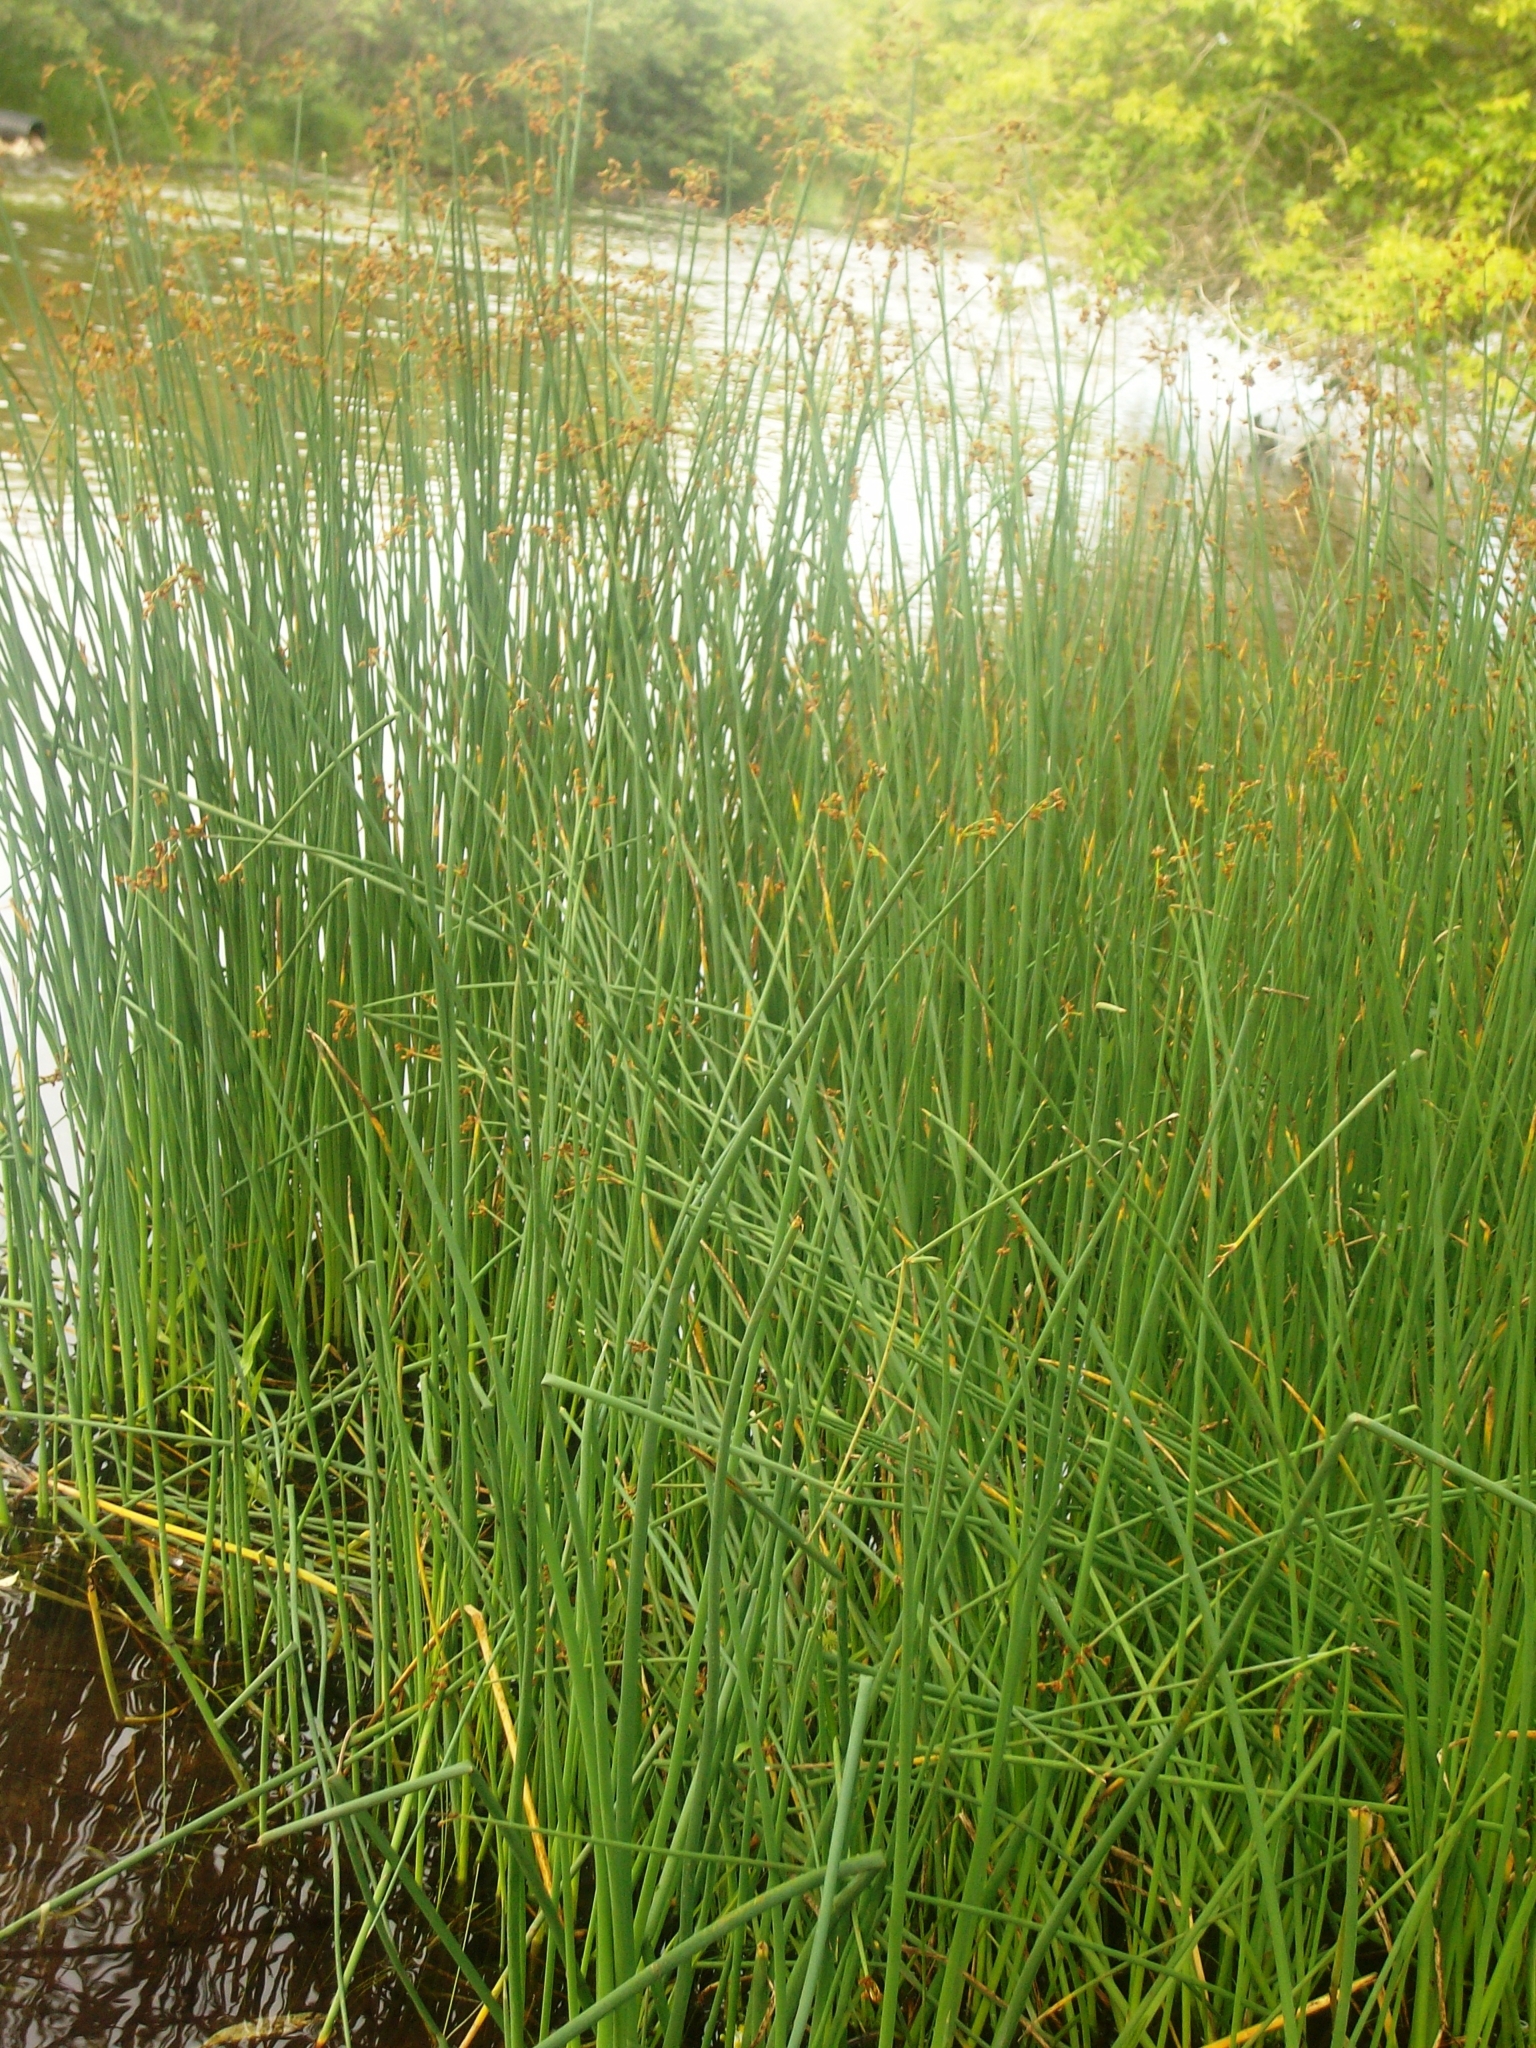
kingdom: Plantae
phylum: Tracheophyta
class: Liliopsida
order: Poales
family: Cyperaceae
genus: Schoenoplectus
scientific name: Schoenoplectus tabernaemontani
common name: Grey club-rush
